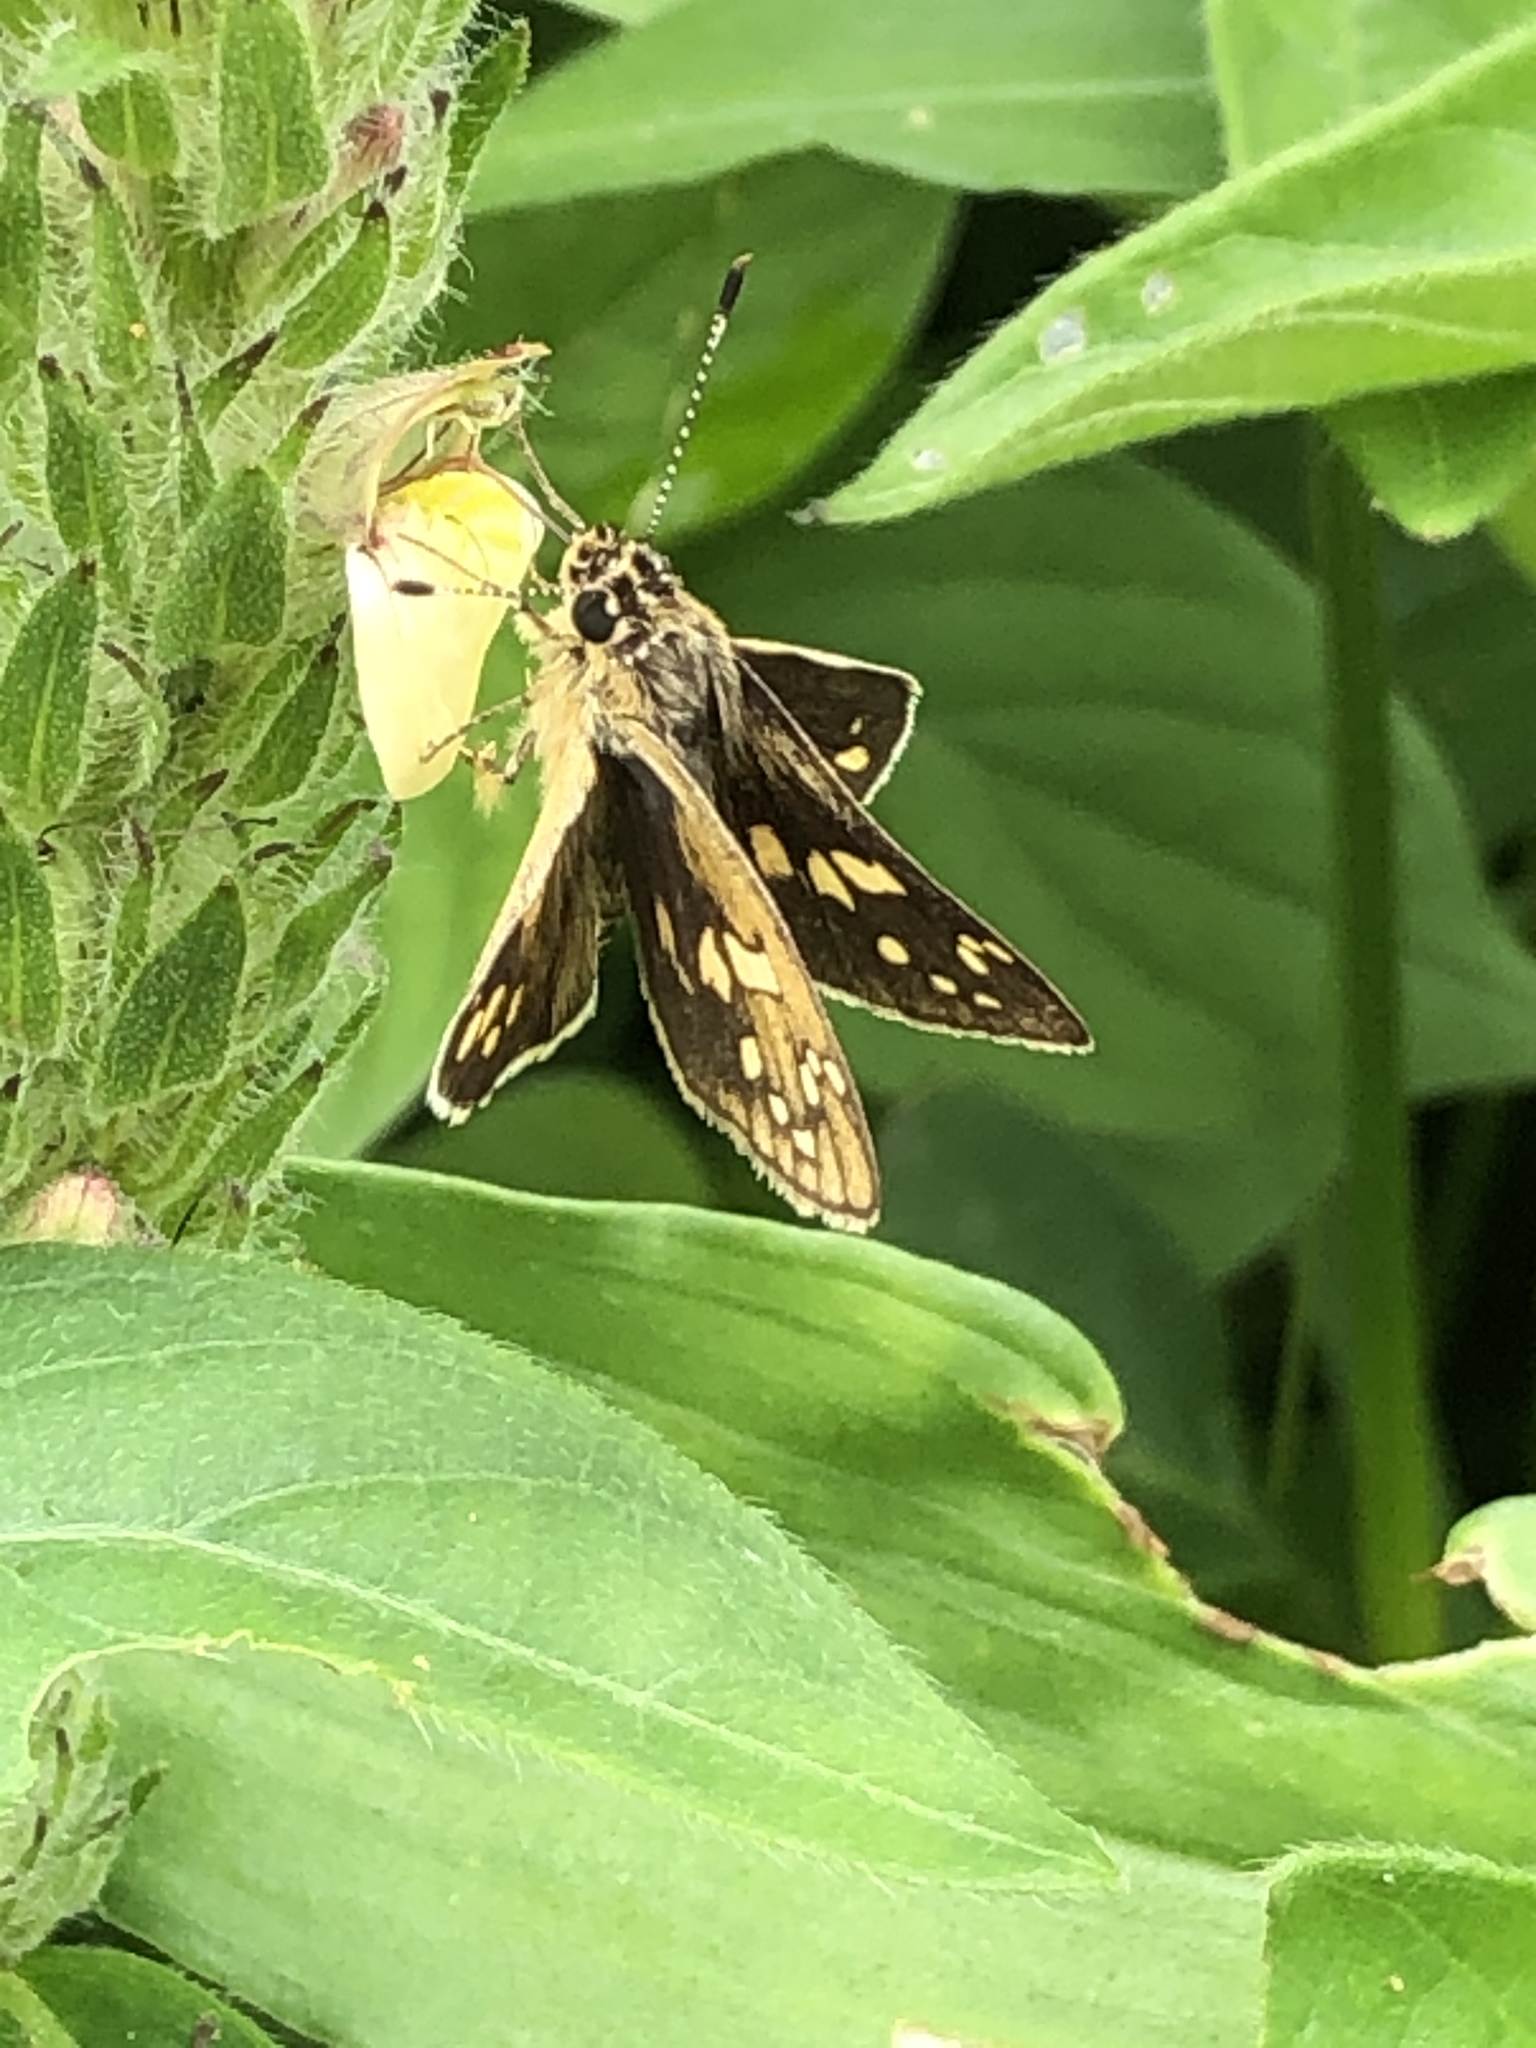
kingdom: Animalia
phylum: Arthropoda
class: Insecta
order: Lepidoptera
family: Hesperiidae
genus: Dotta
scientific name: Dotta
